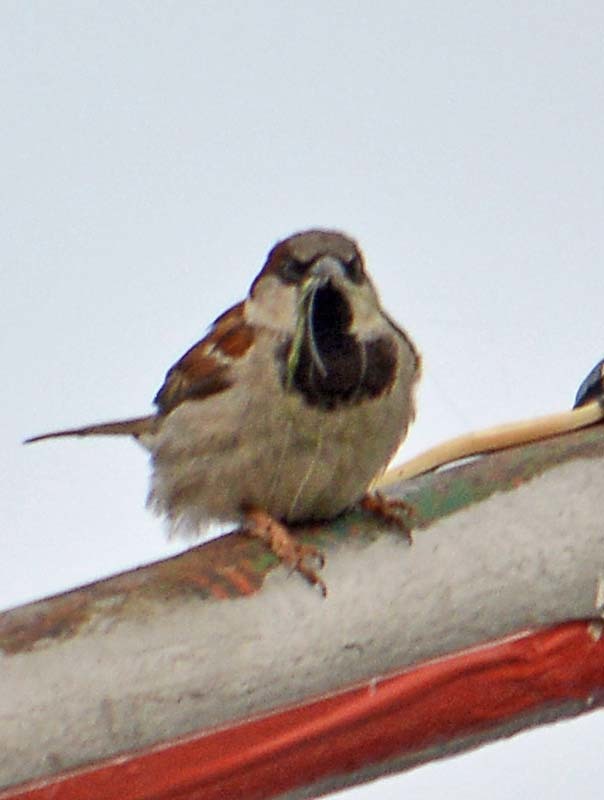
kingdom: Animalia
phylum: Chordata
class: Aves
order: Passeriformes
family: Passeridae
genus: Passer
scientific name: Passer domesticus
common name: House sparrow
